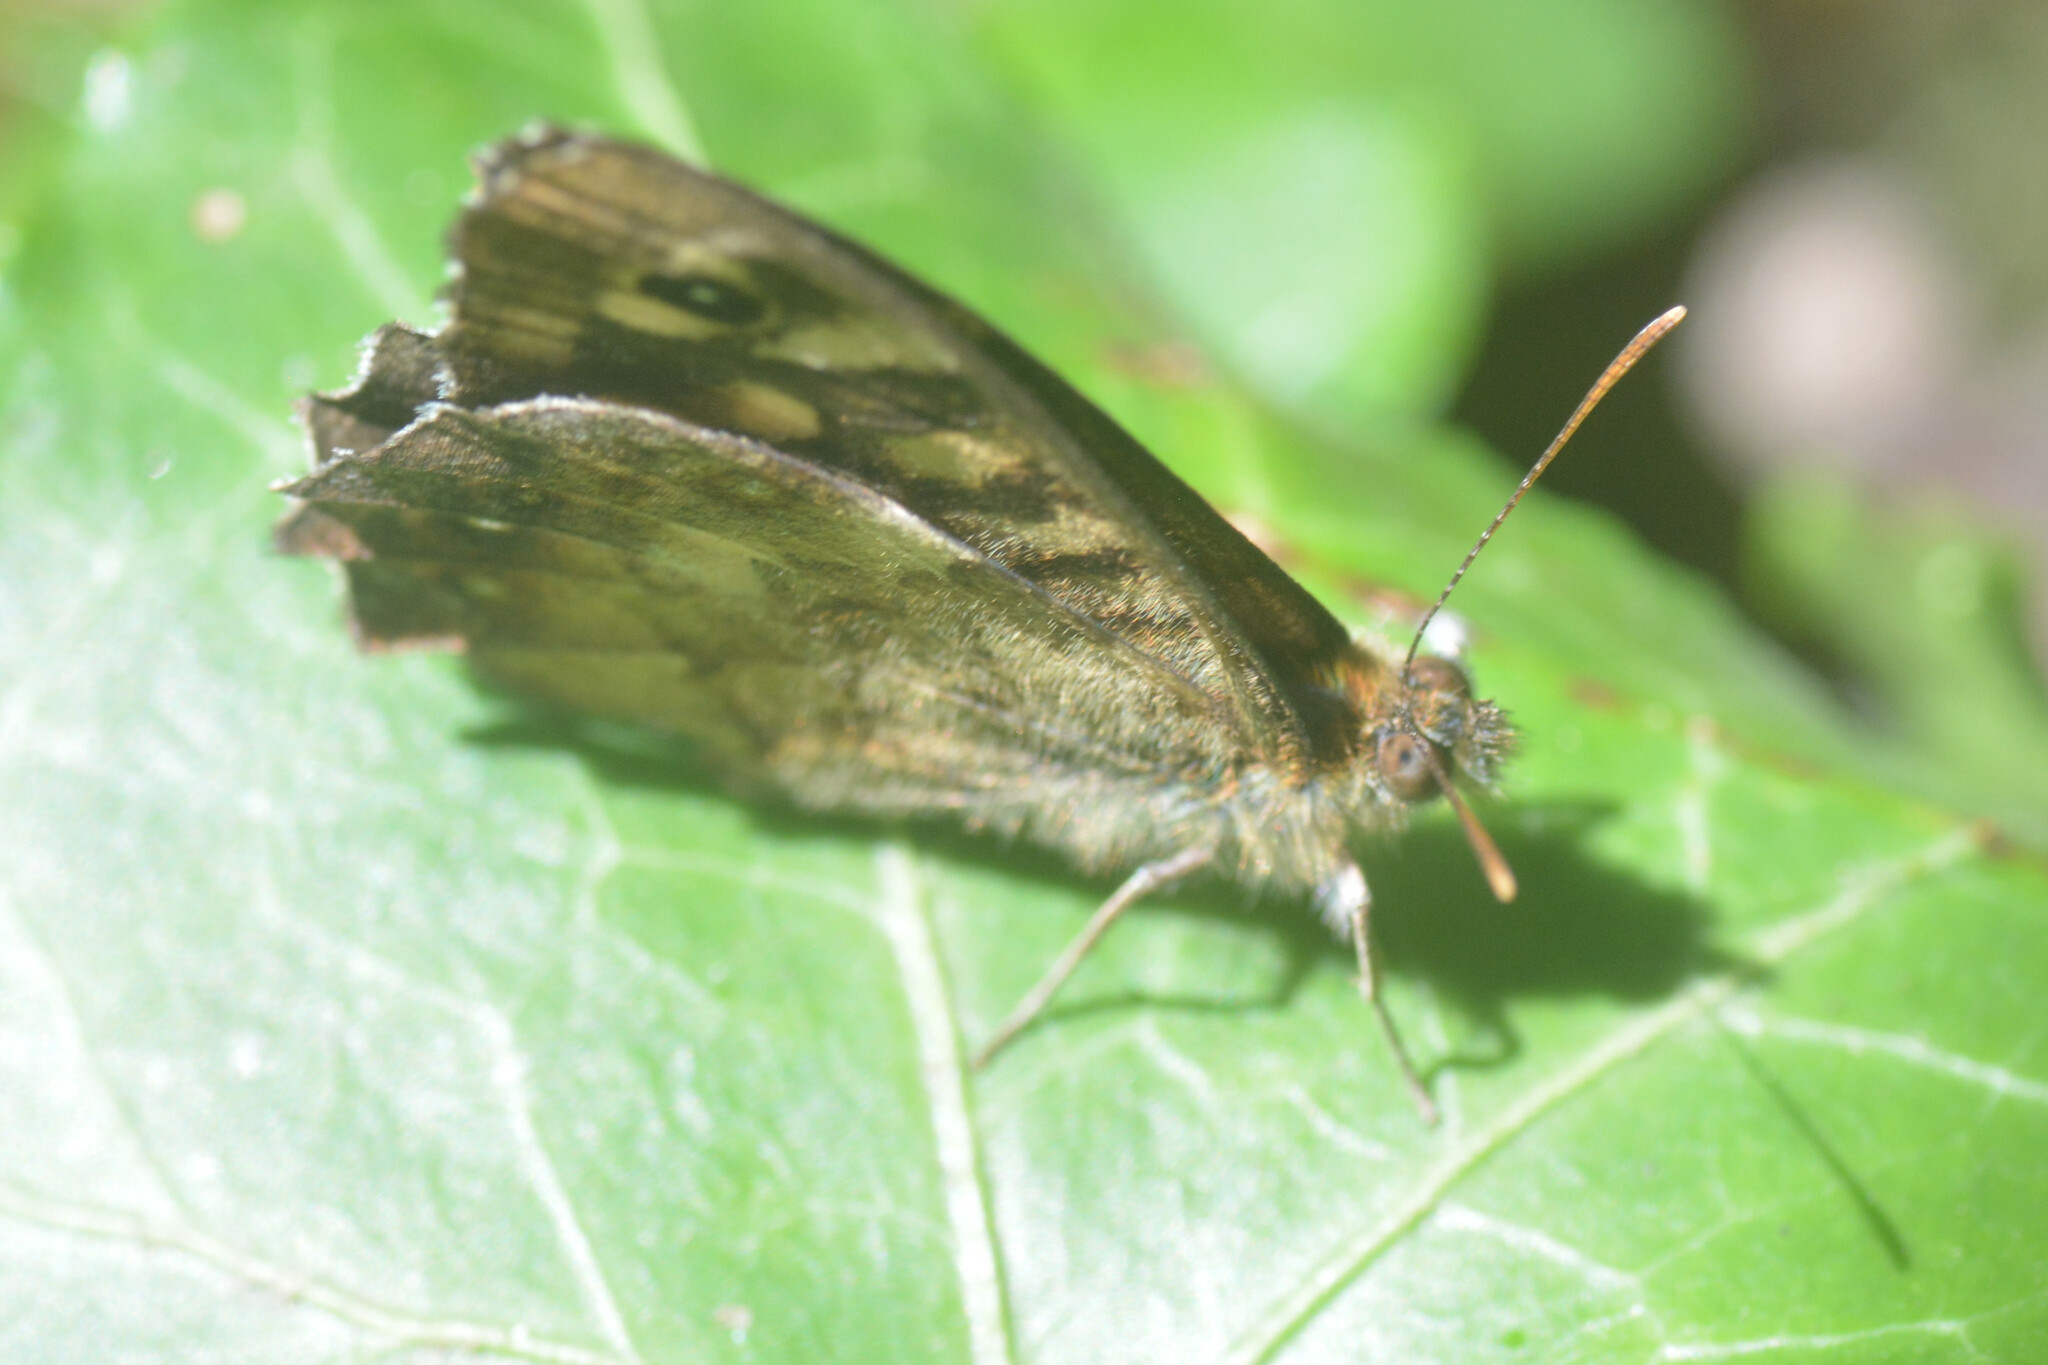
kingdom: Animalia
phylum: Arthropoda
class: Insecta
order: Lepidoptera
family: Nymphalidae
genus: Pararge
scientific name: Pararge aegeria
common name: Speckled wood
